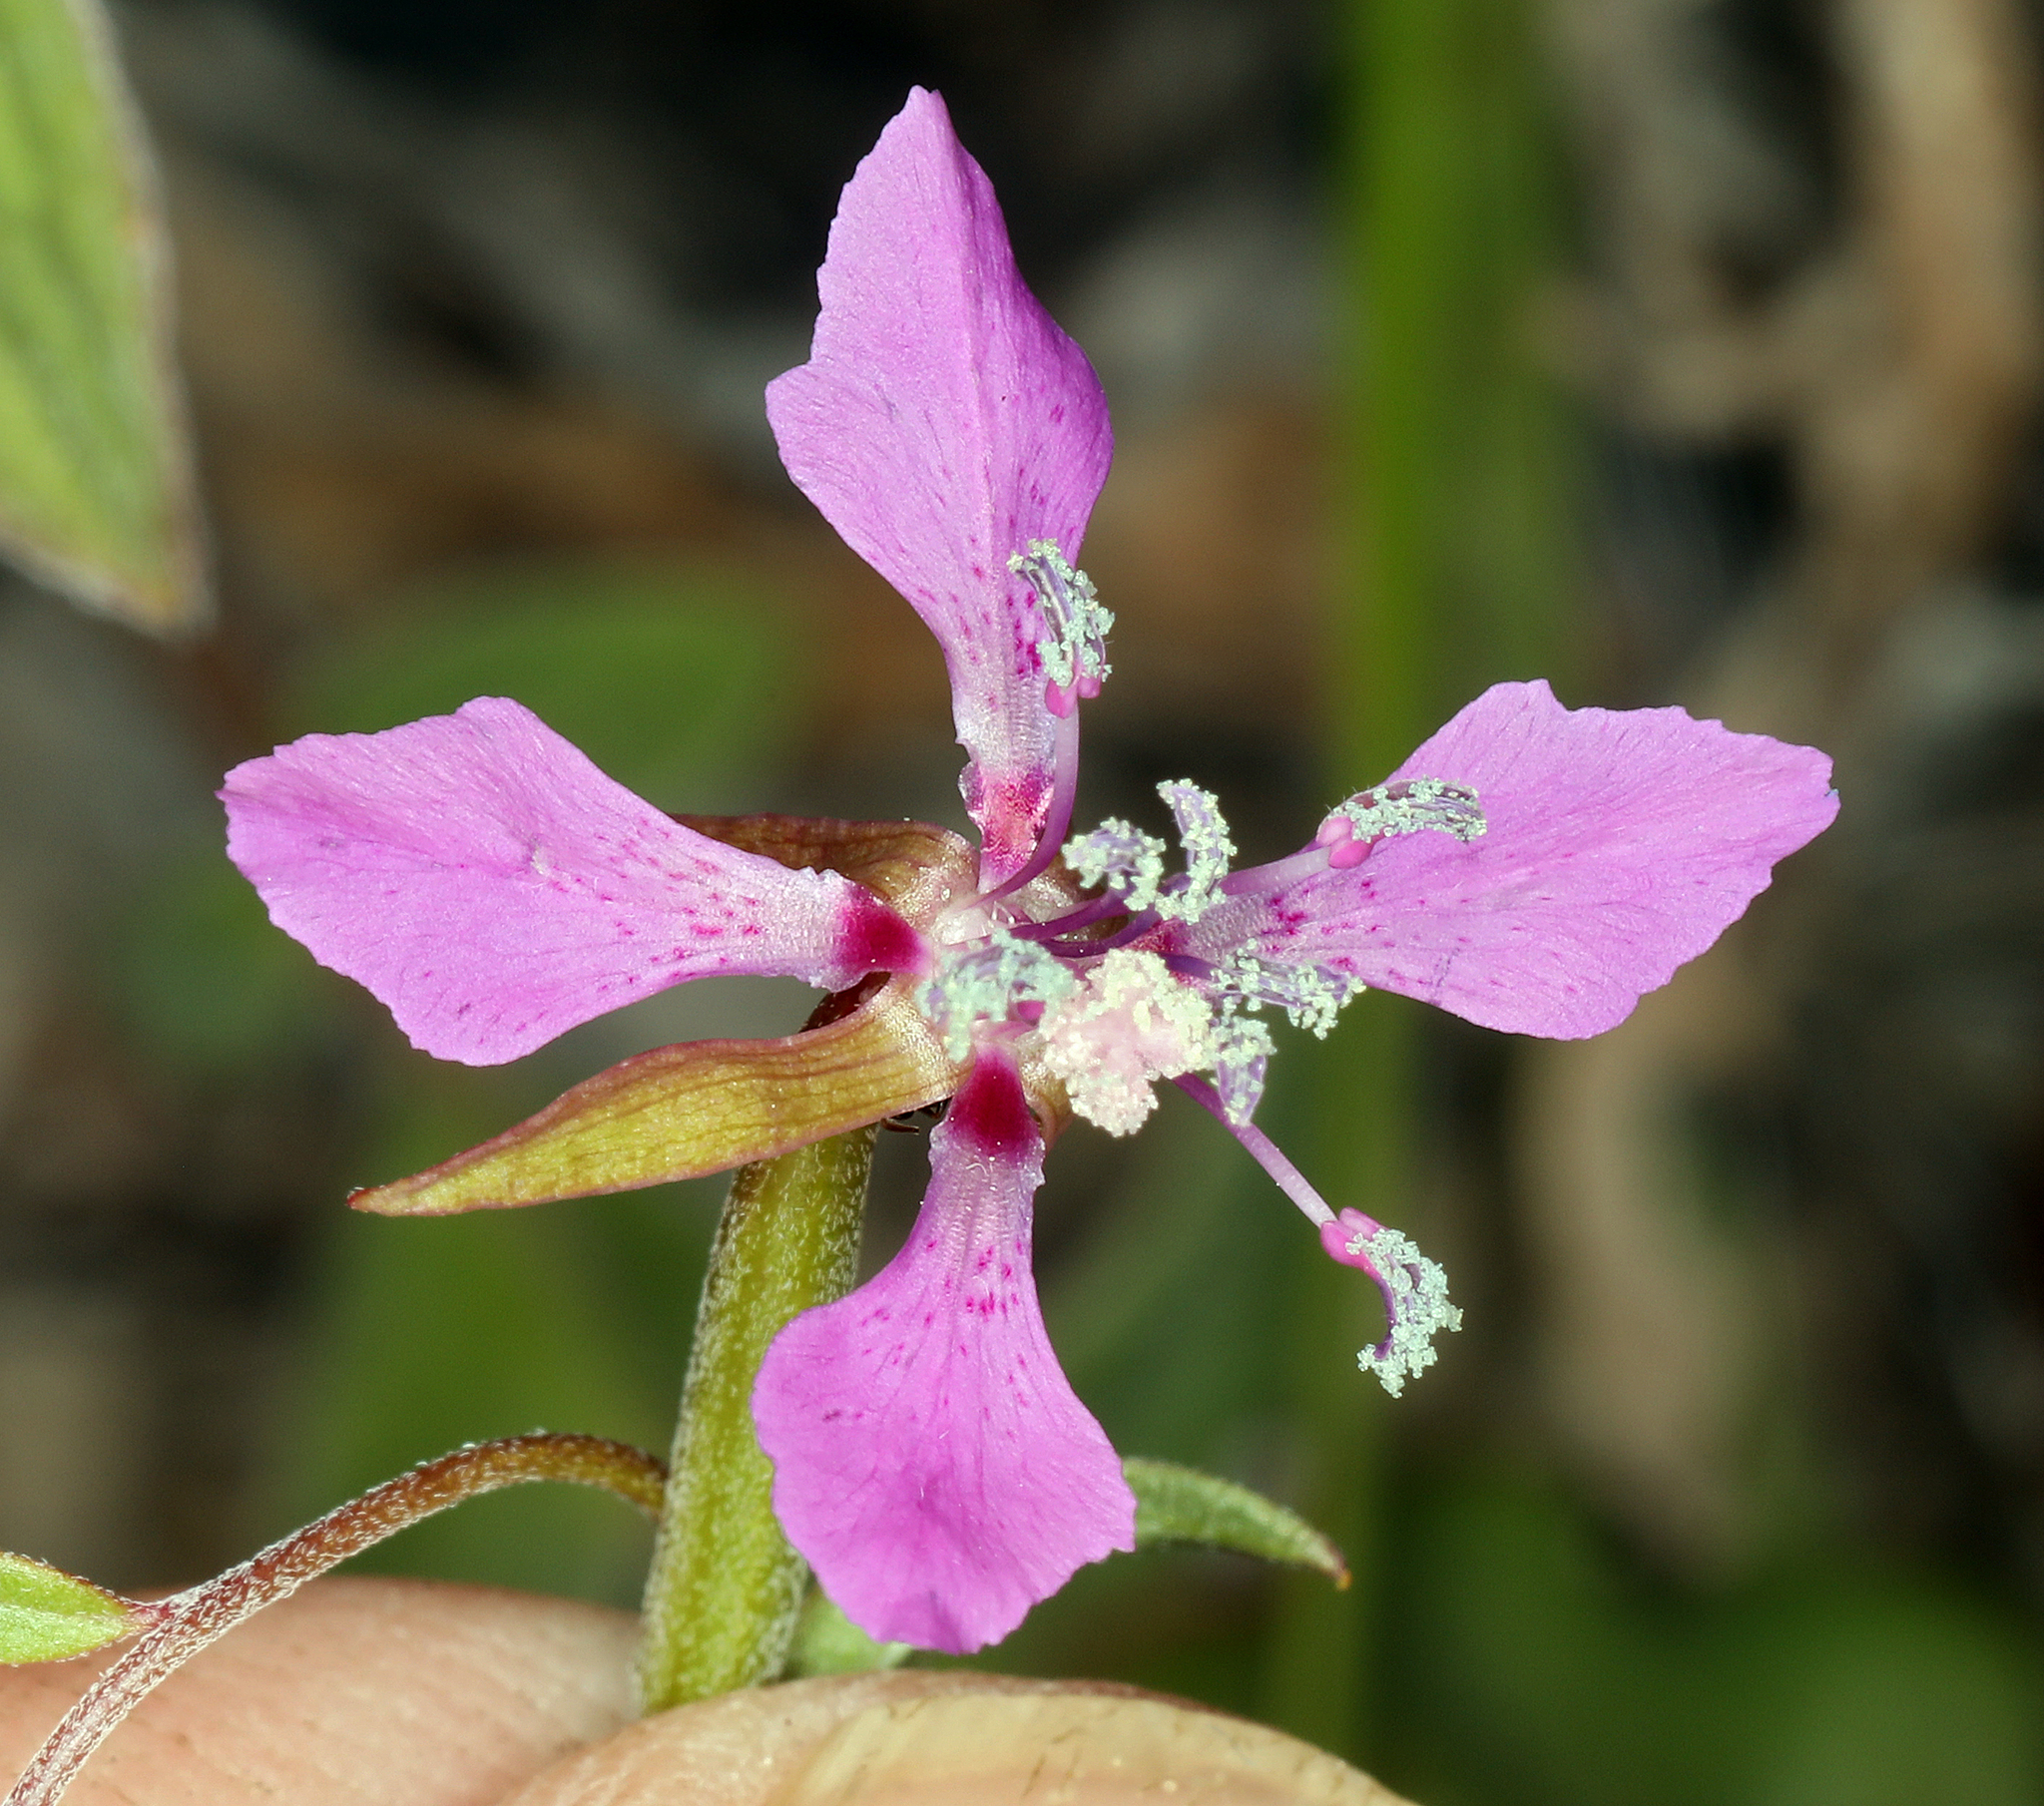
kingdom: Plantae
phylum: Tracheophyta
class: Magnoliopsida
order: Myrtales
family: Onagraceae
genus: Clarkia
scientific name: Clarkia rhomboidea
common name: Broadleaf clarkia
